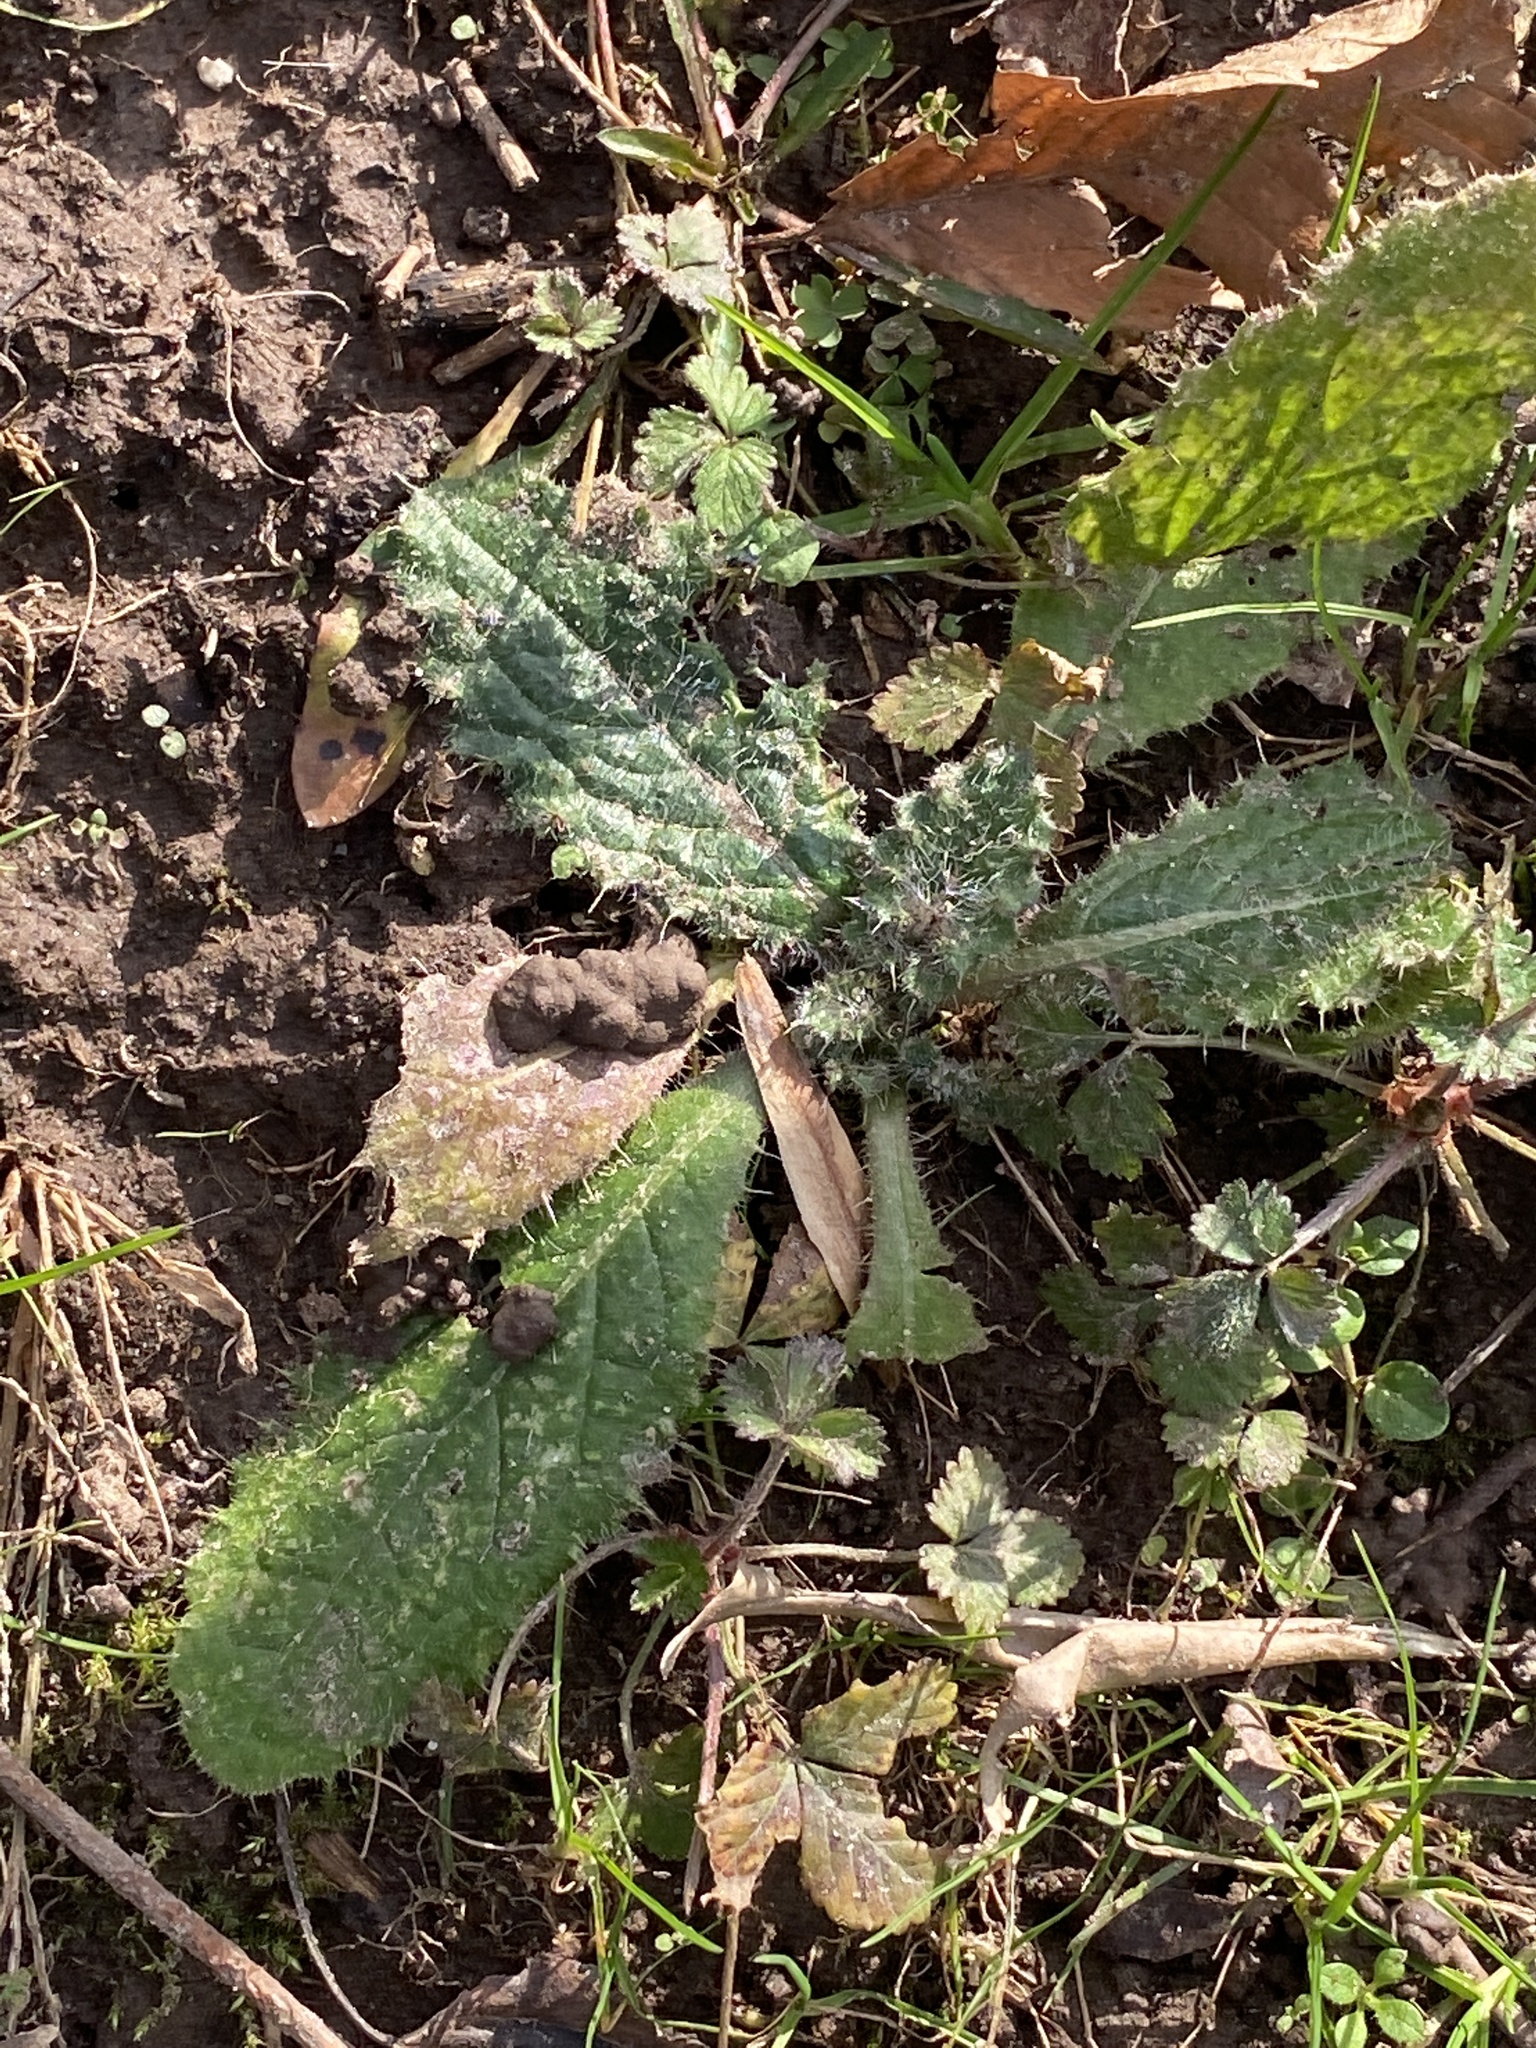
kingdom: Plantae
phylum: Tracheophyta
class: Magnoliopsida
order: Asterales
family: Asteraceae
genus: Cirsium
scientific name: Cirsium vulgare
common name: Bull thistle
